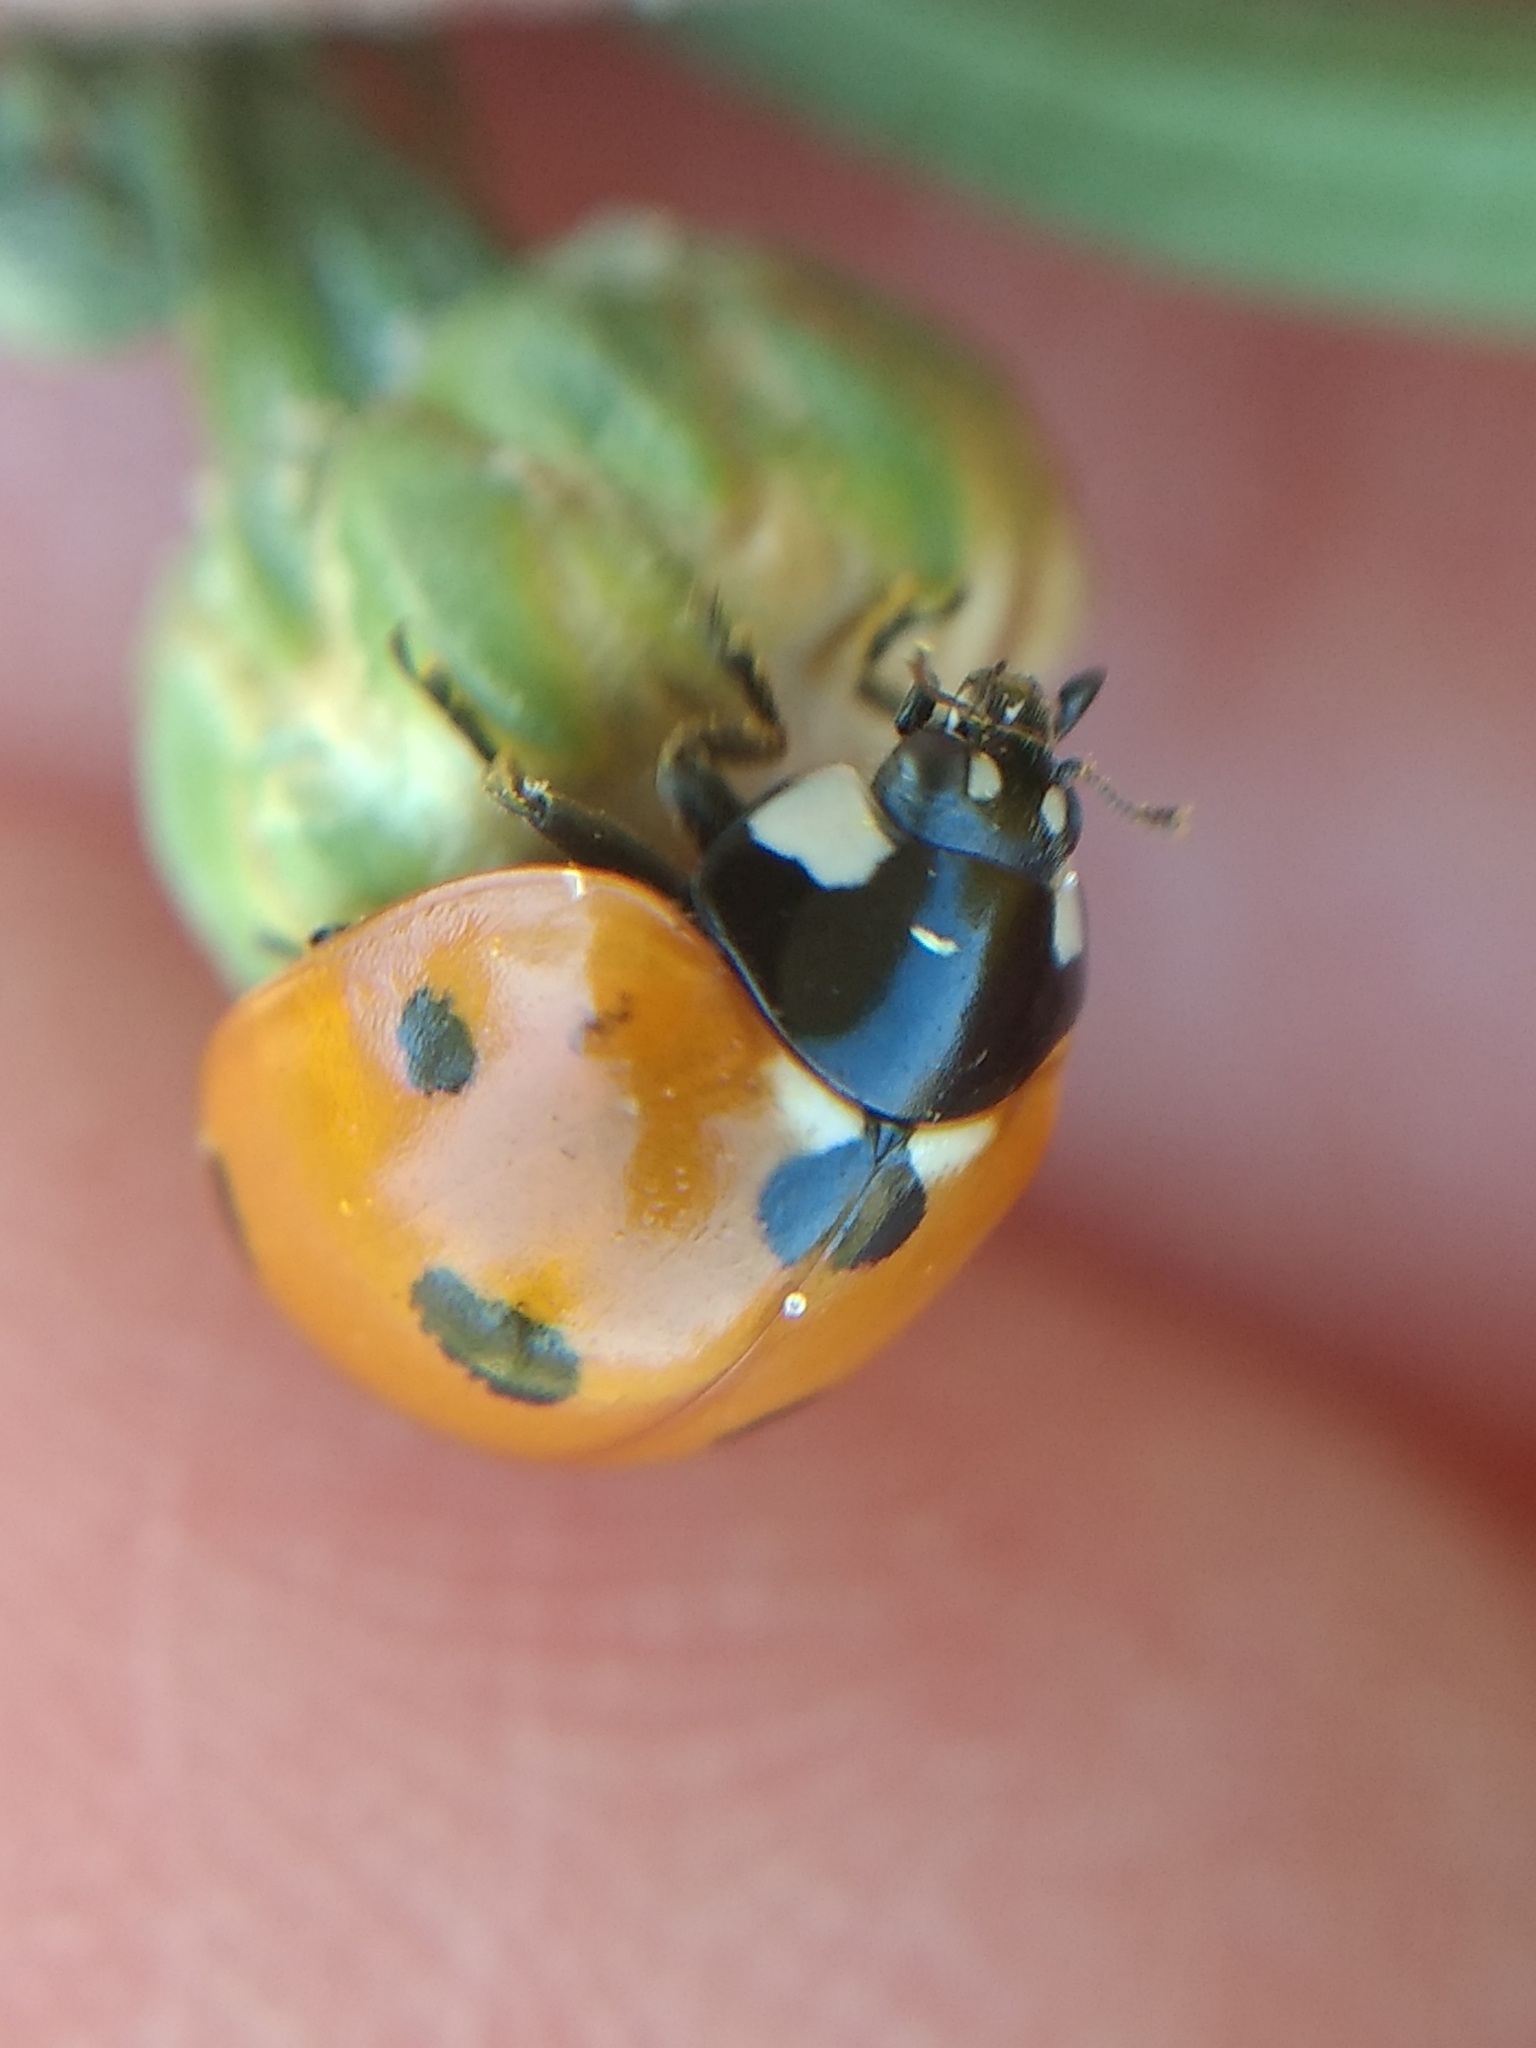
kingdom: Animalia
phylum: Arthropoda
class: Insecta
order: Coleoptera
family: Coccinellidae
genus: Coccinella
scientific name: Coccinella septempunctata
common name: Sevenspotted lady beetle
